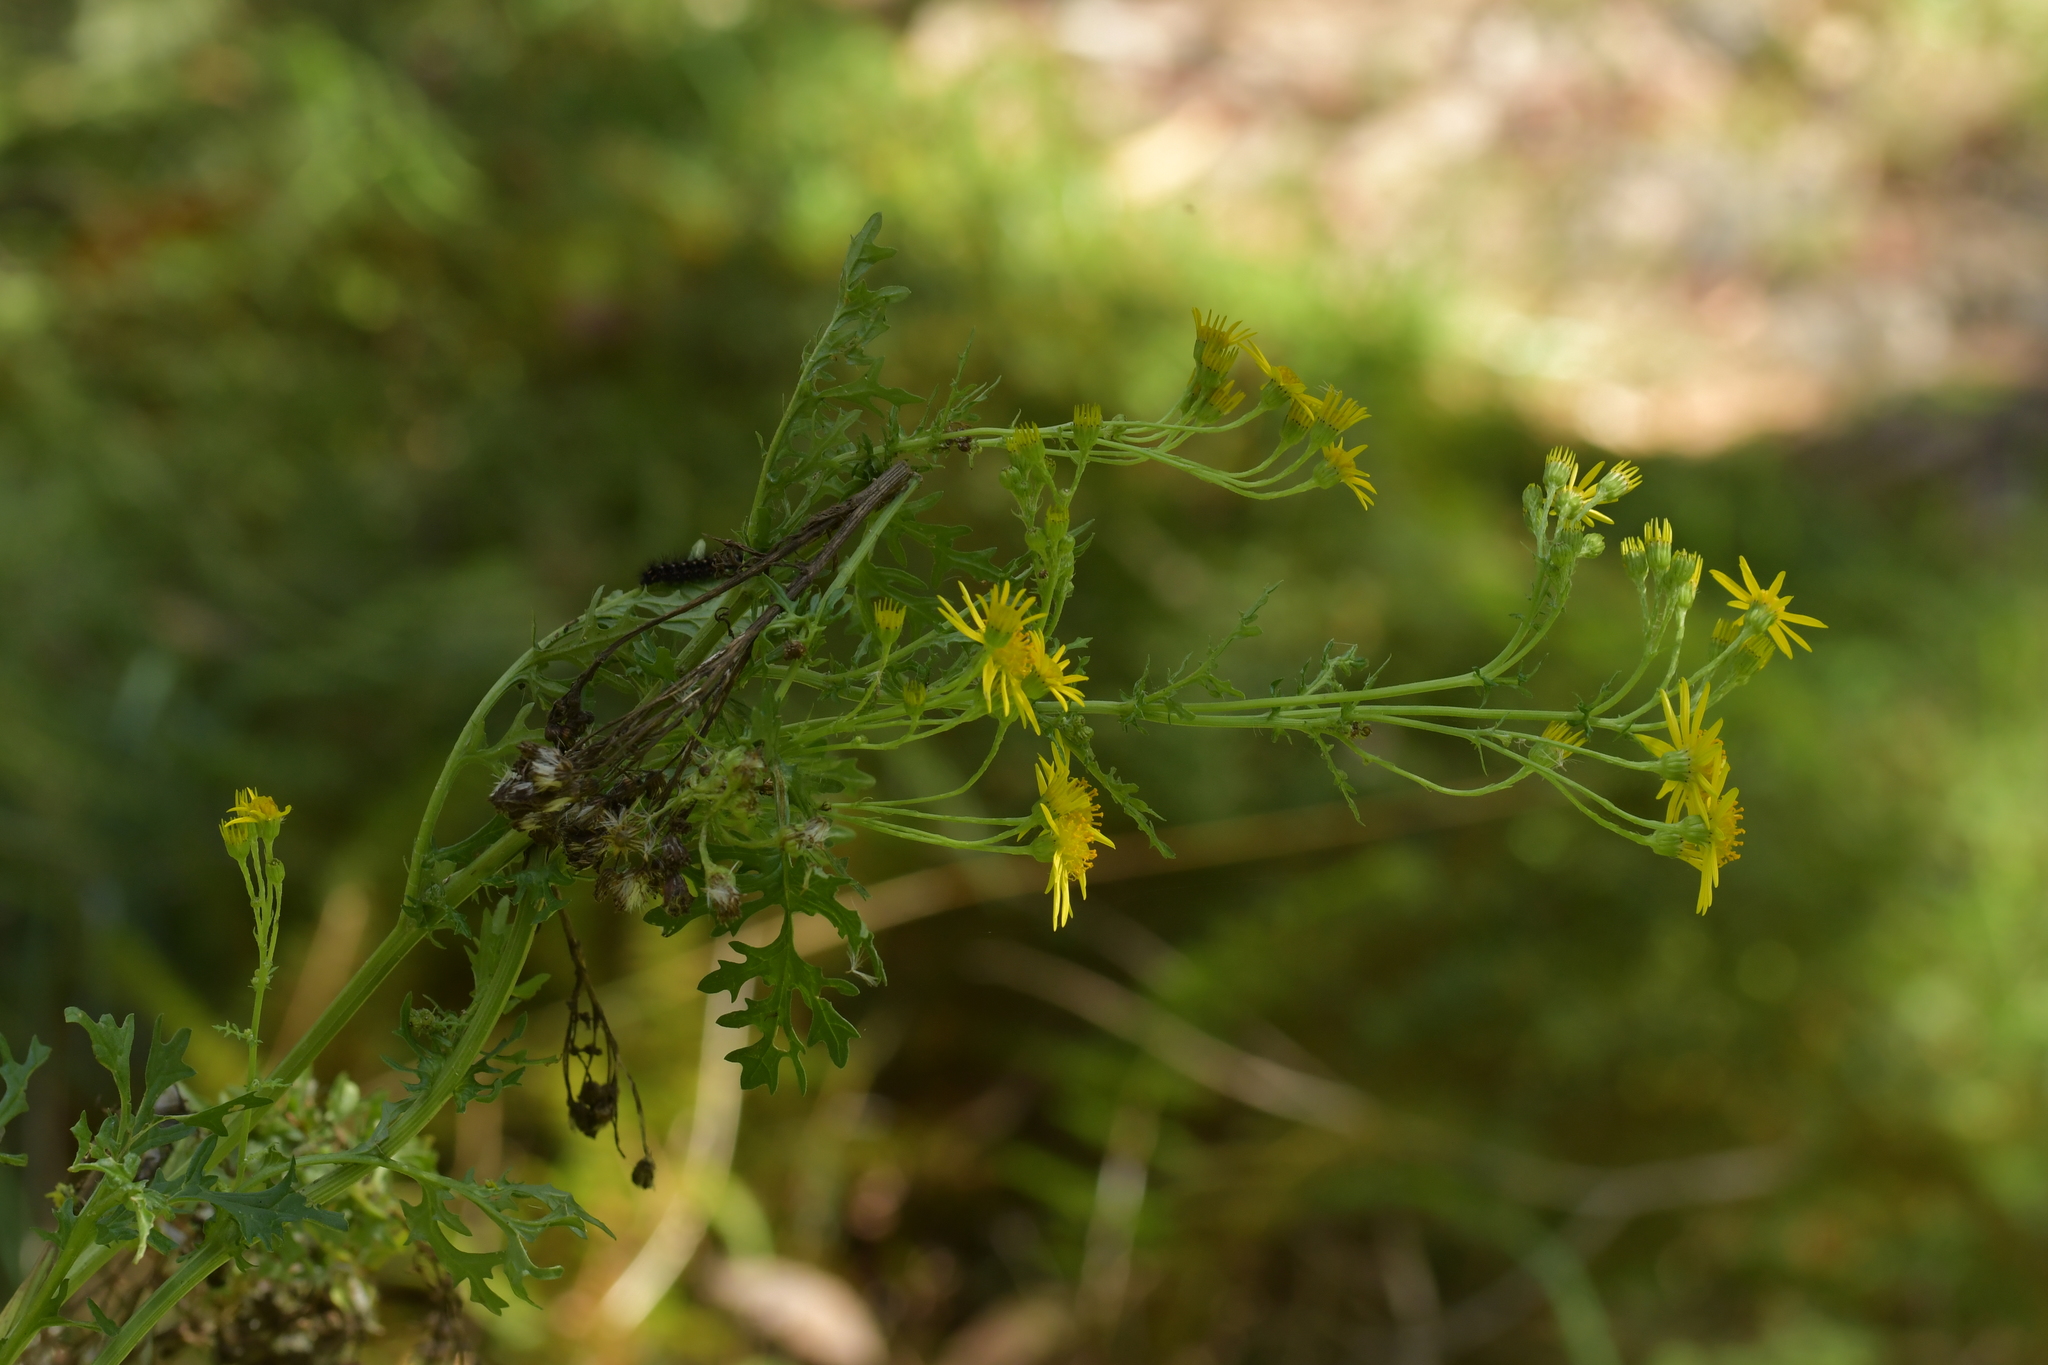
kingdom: Plantae
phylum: Tracheophyta
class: Magnoliopsida
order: Asterales
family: Asteraceae
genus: Jacobaea
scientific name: Jacobaea vulgaris
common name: Stinking willie
